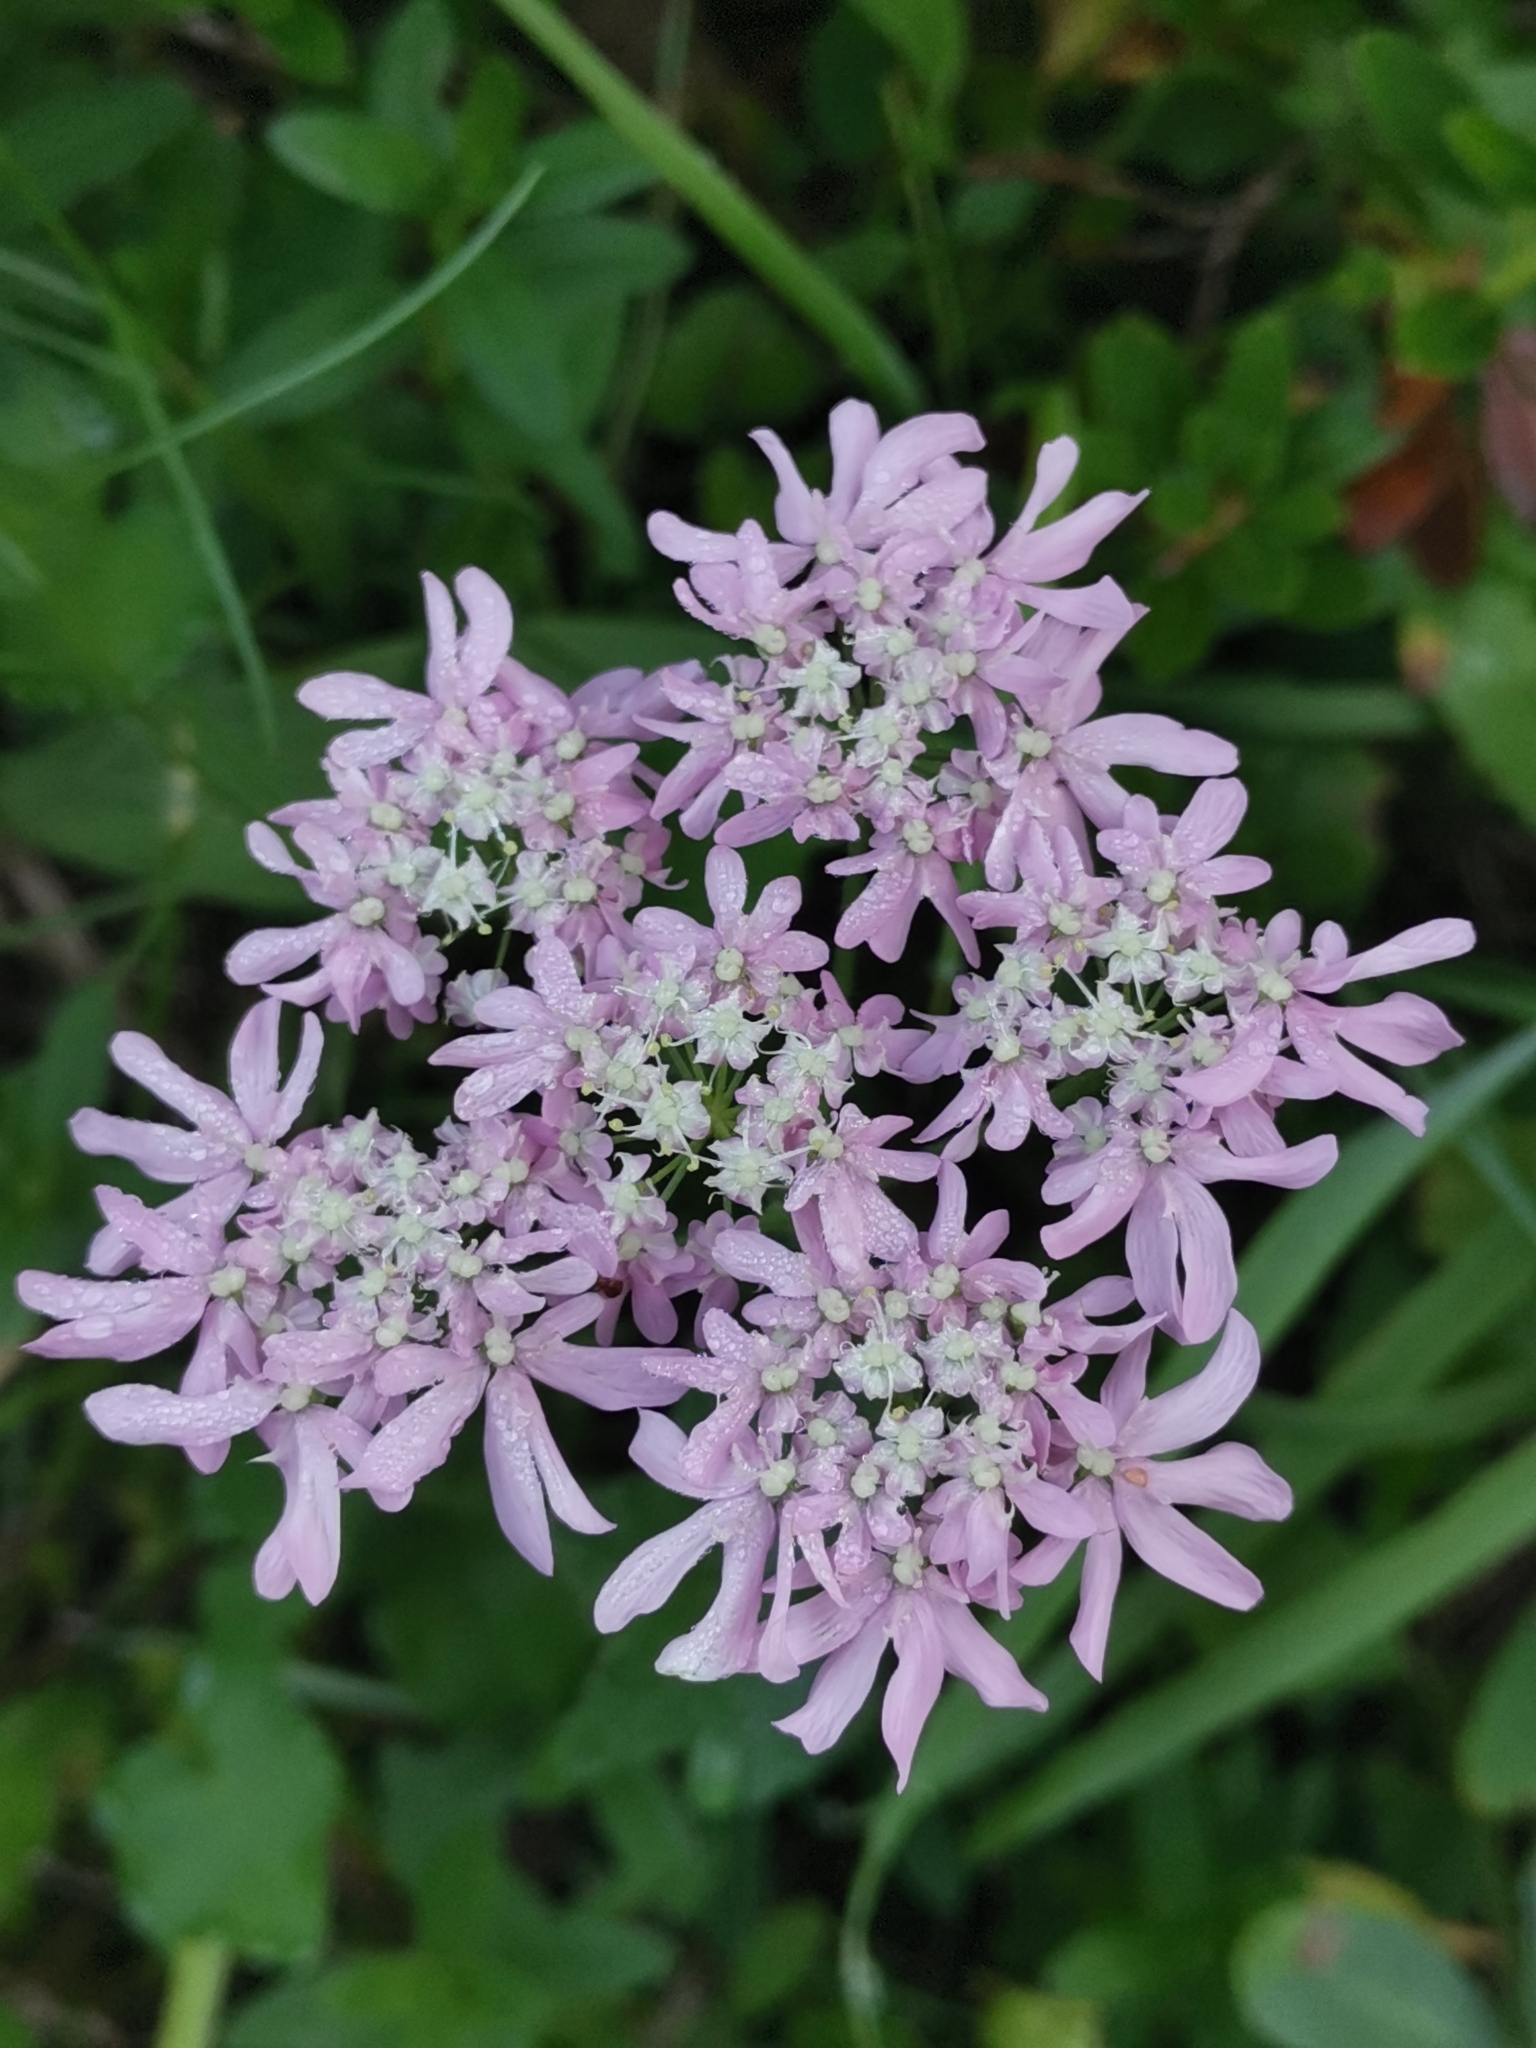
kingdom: Plantae
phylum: Tracheophyta
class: Magnoliopsida
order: Apiales
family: Apiaceae
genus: Heracleum
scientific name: Heracleum austriacum
